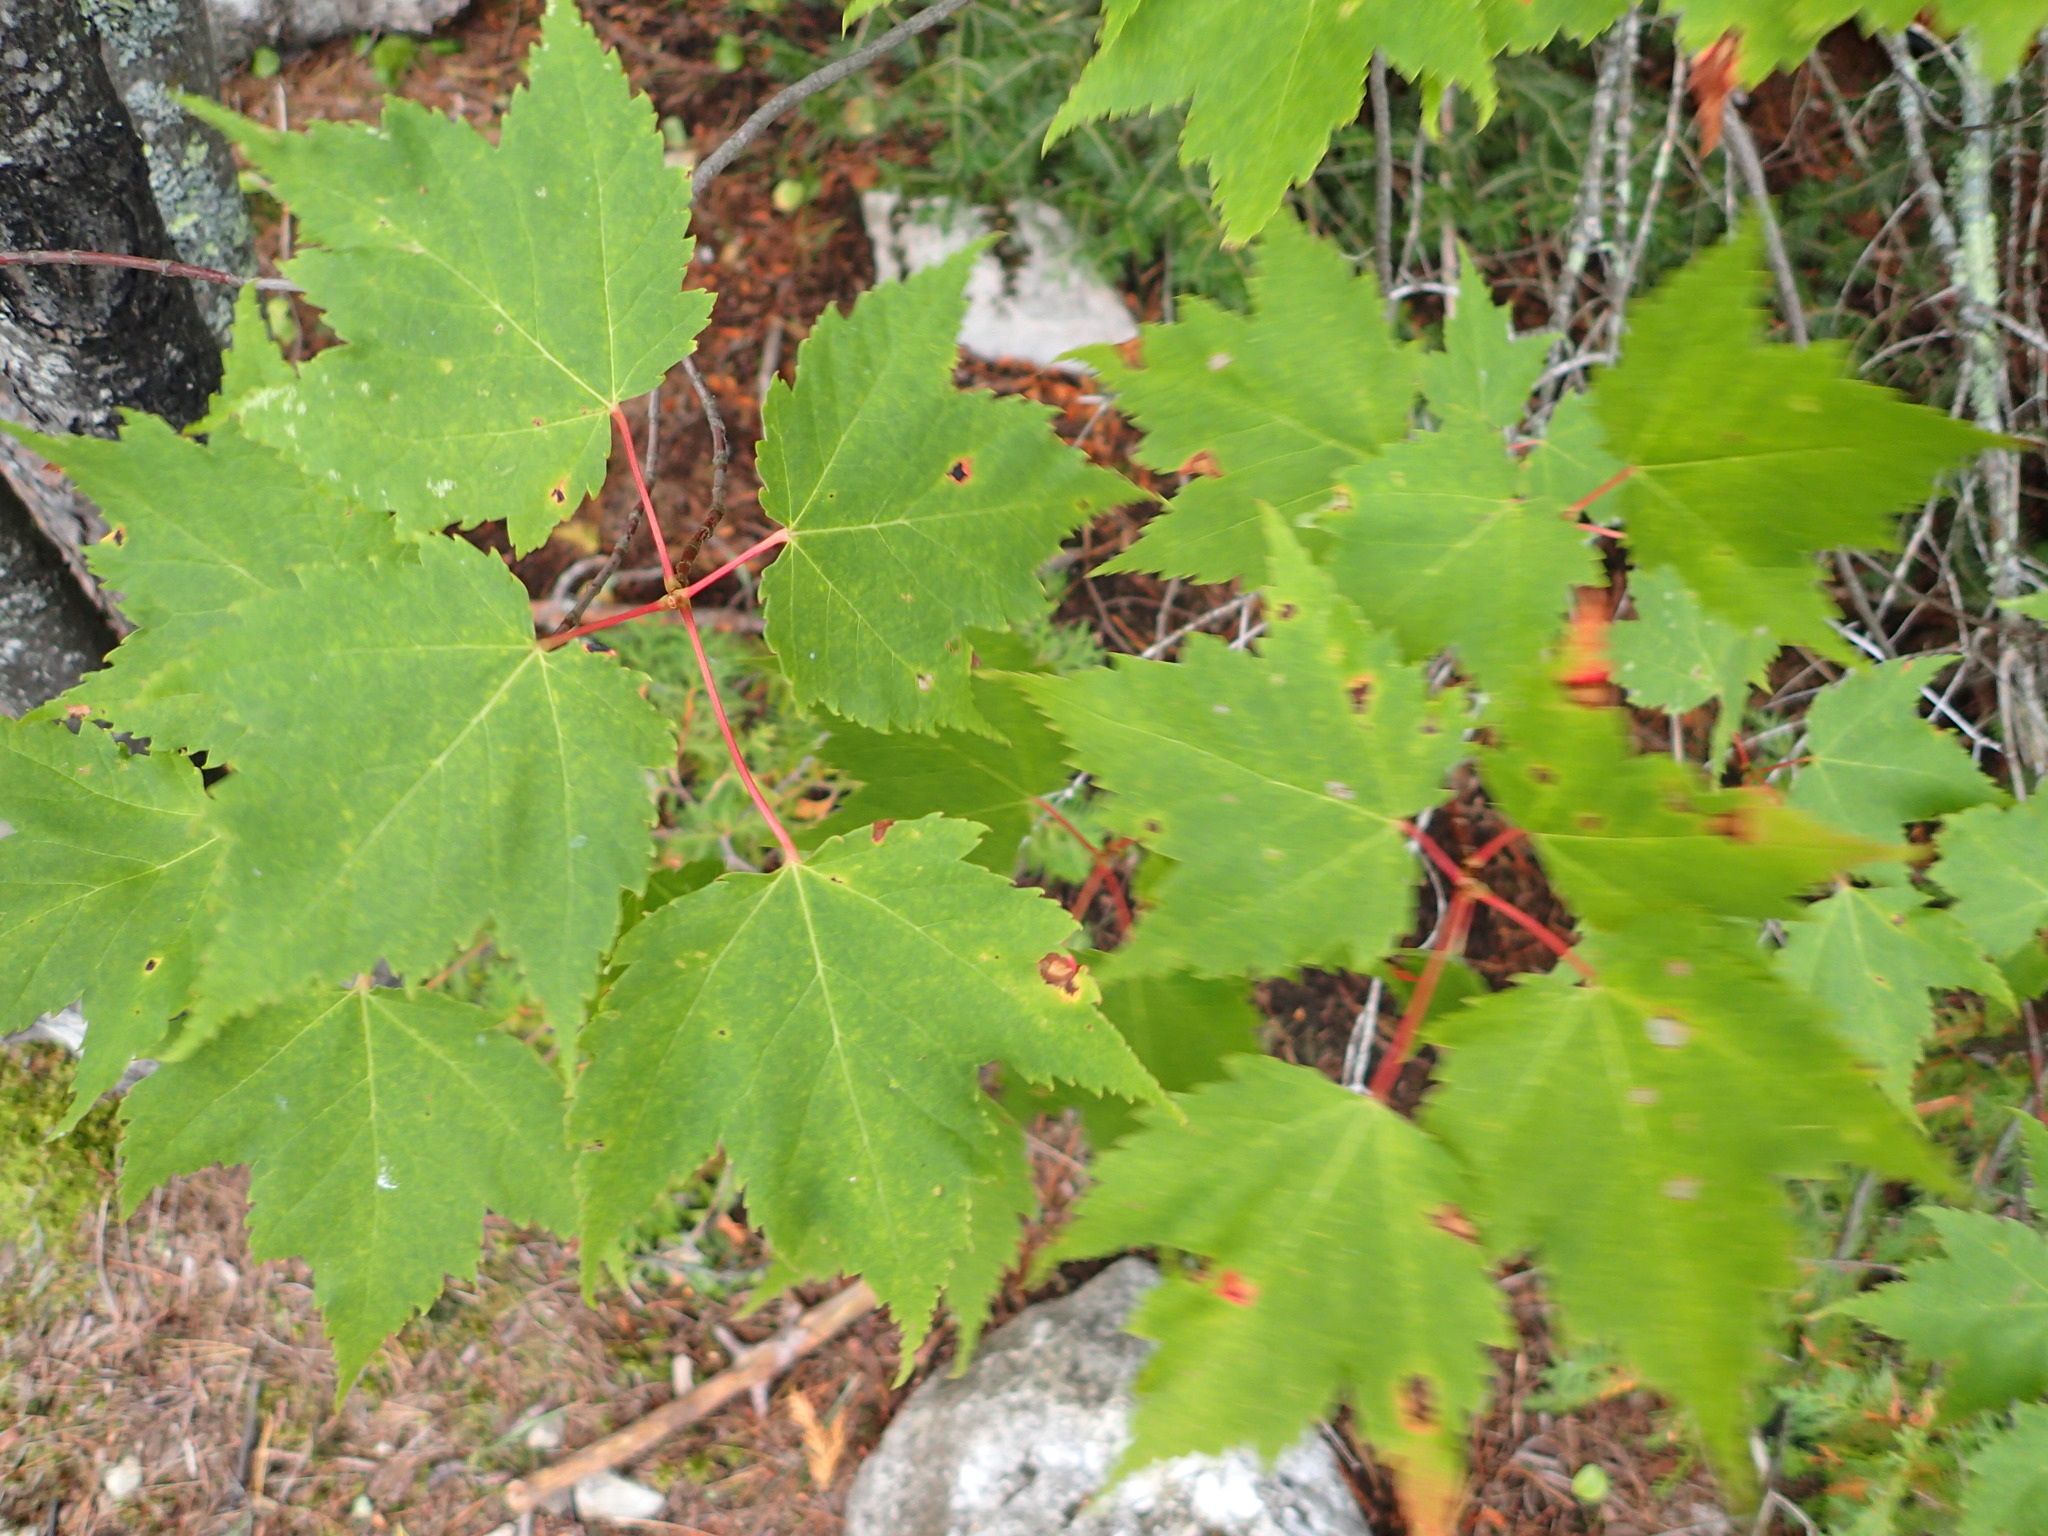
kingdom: Plantae
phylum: Tracheophyta
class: Magnoliopsida
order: Sapindales
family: Sapindaceae
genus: Acer
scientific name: Acer rubrum
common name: Red maple
